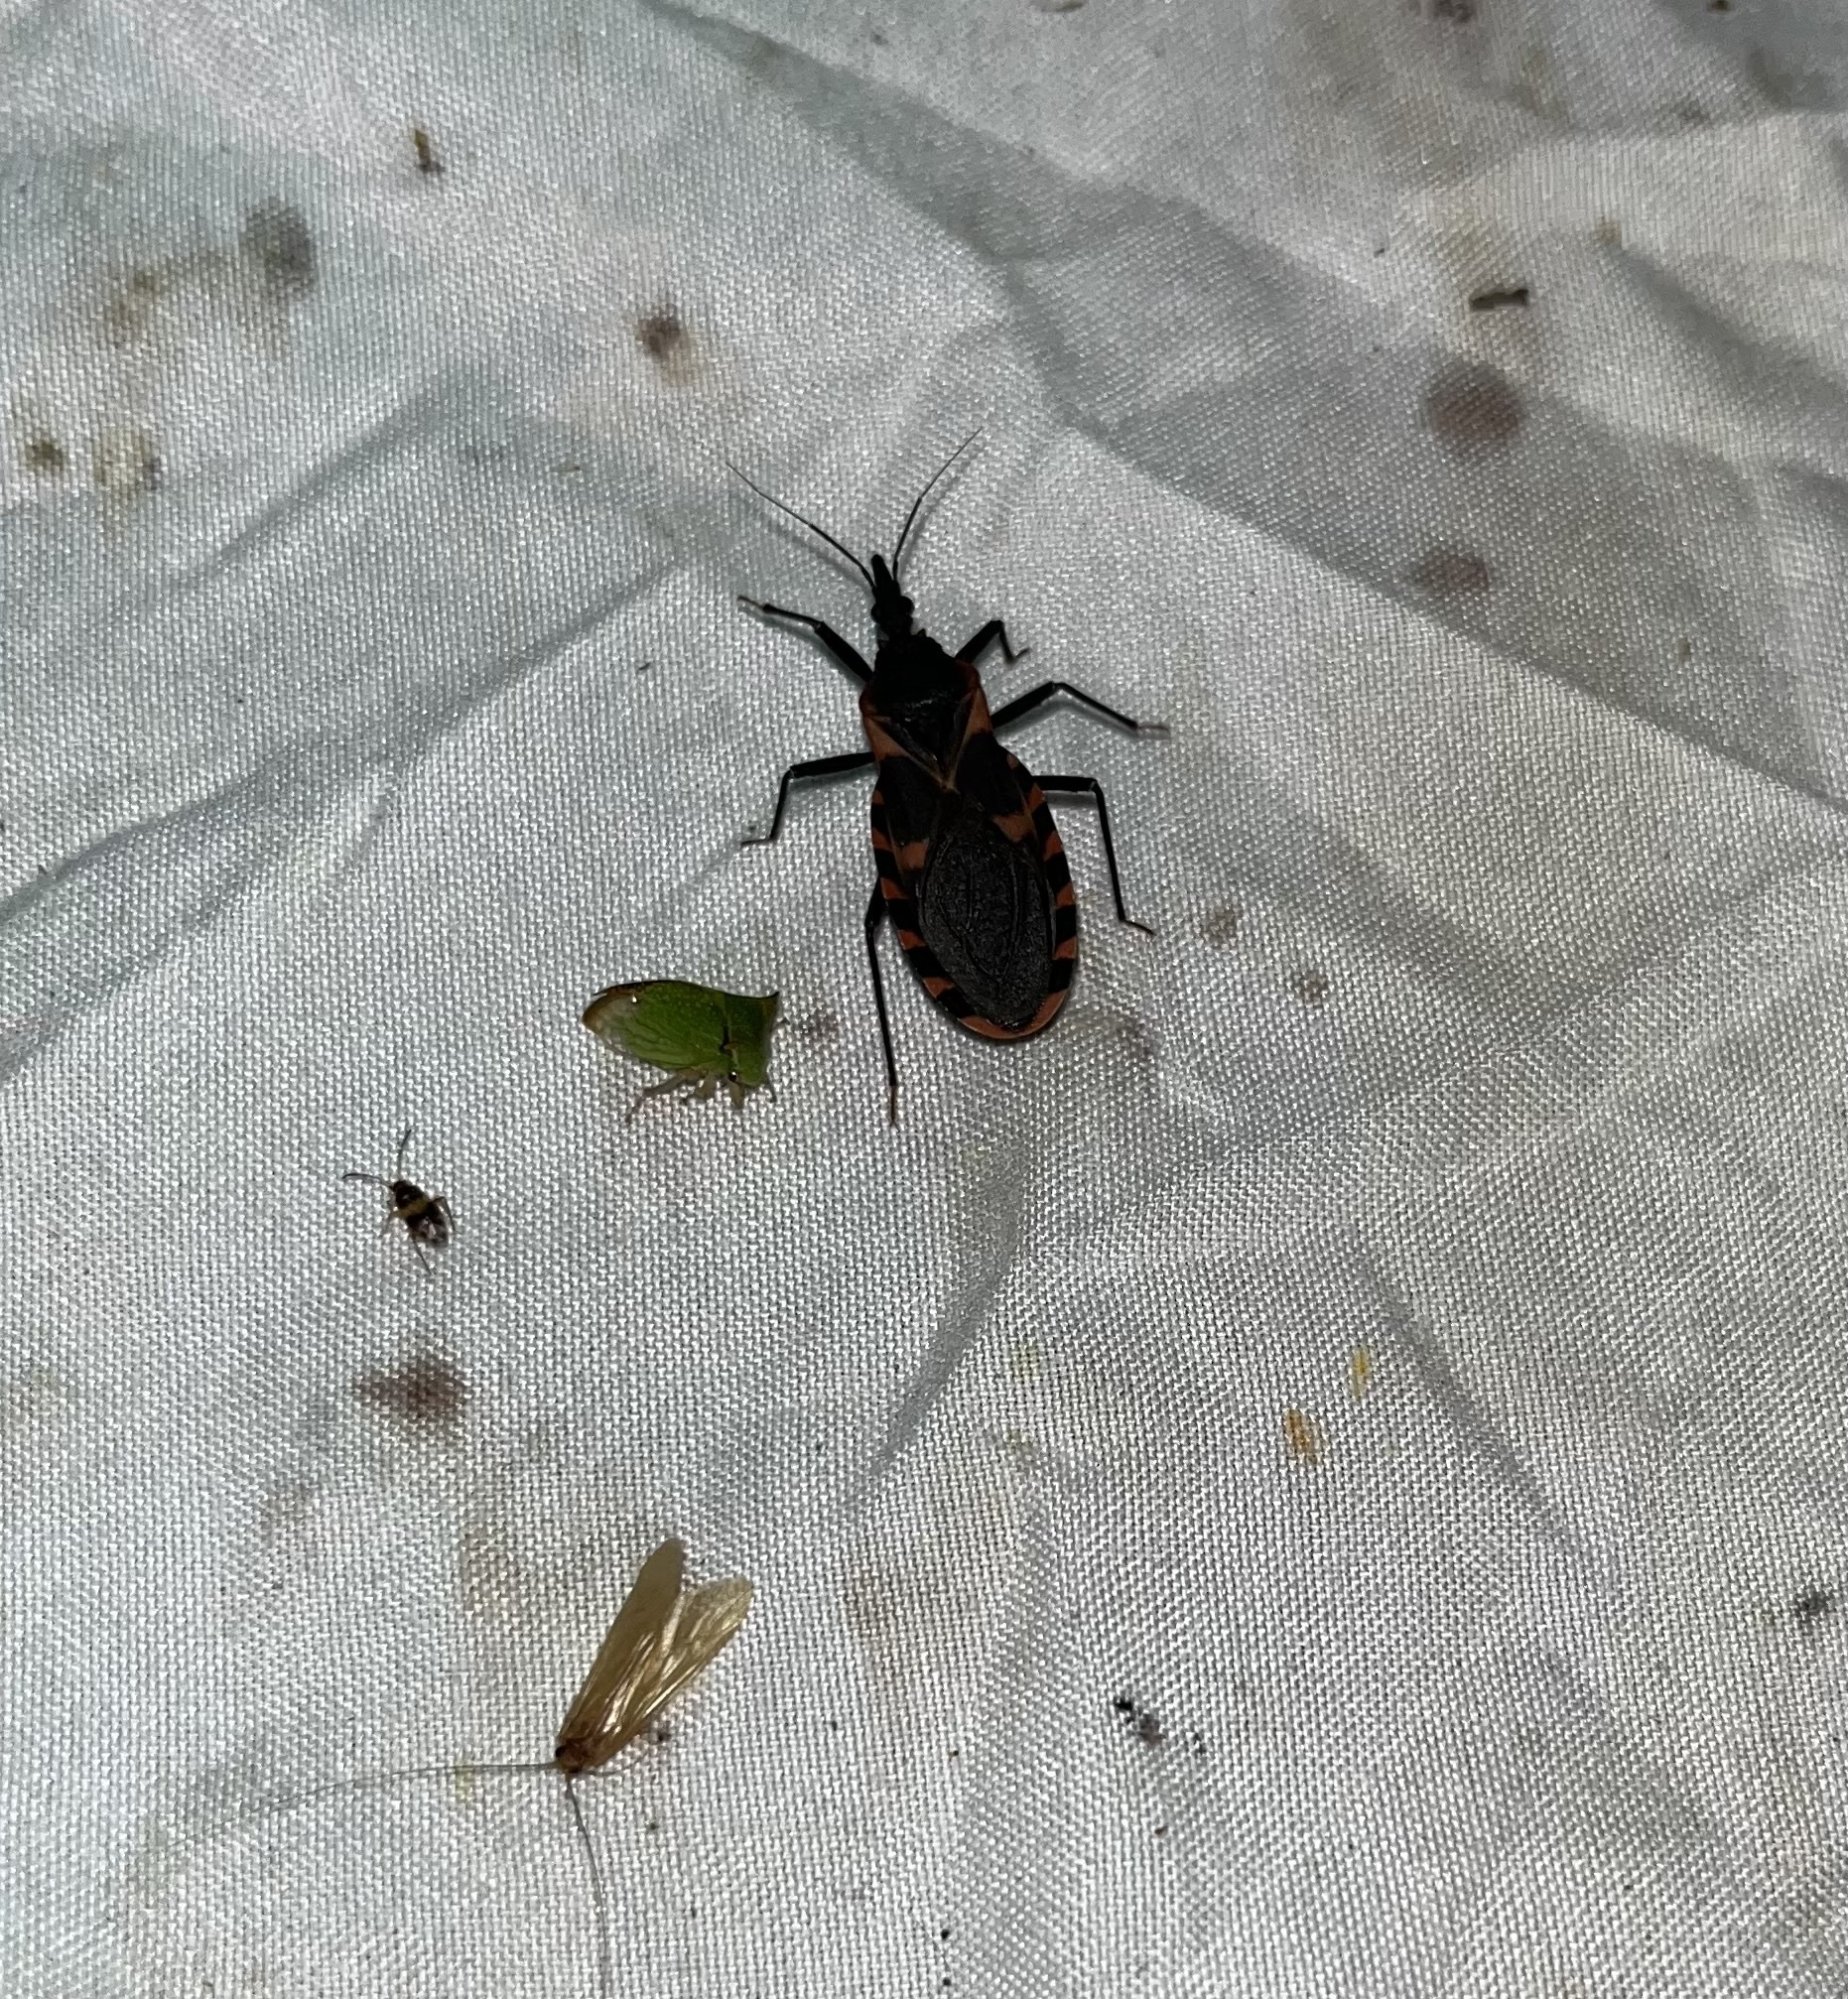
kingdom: Animalia
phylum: Arthropoda
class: Insecta
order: Hemiptera
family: Reduviidae
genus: Triatoma
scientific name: Triatoma sanguisuga
